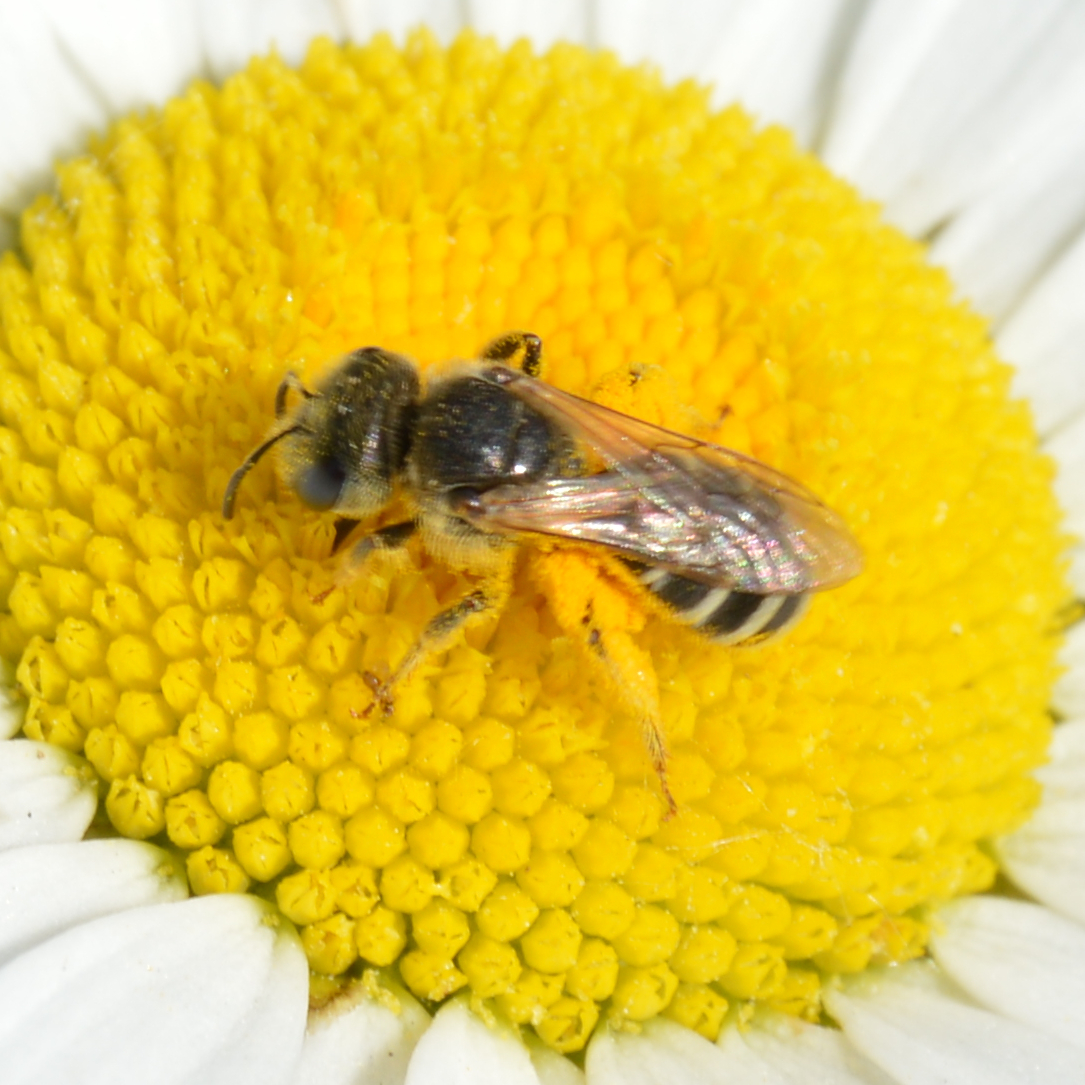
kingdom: Animalia
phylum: Arthropoda
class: Insecta
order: Hymenoptera
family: Halictidae
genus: Halictus
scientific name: Halictus ligatus
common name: Ligated furrow bee
